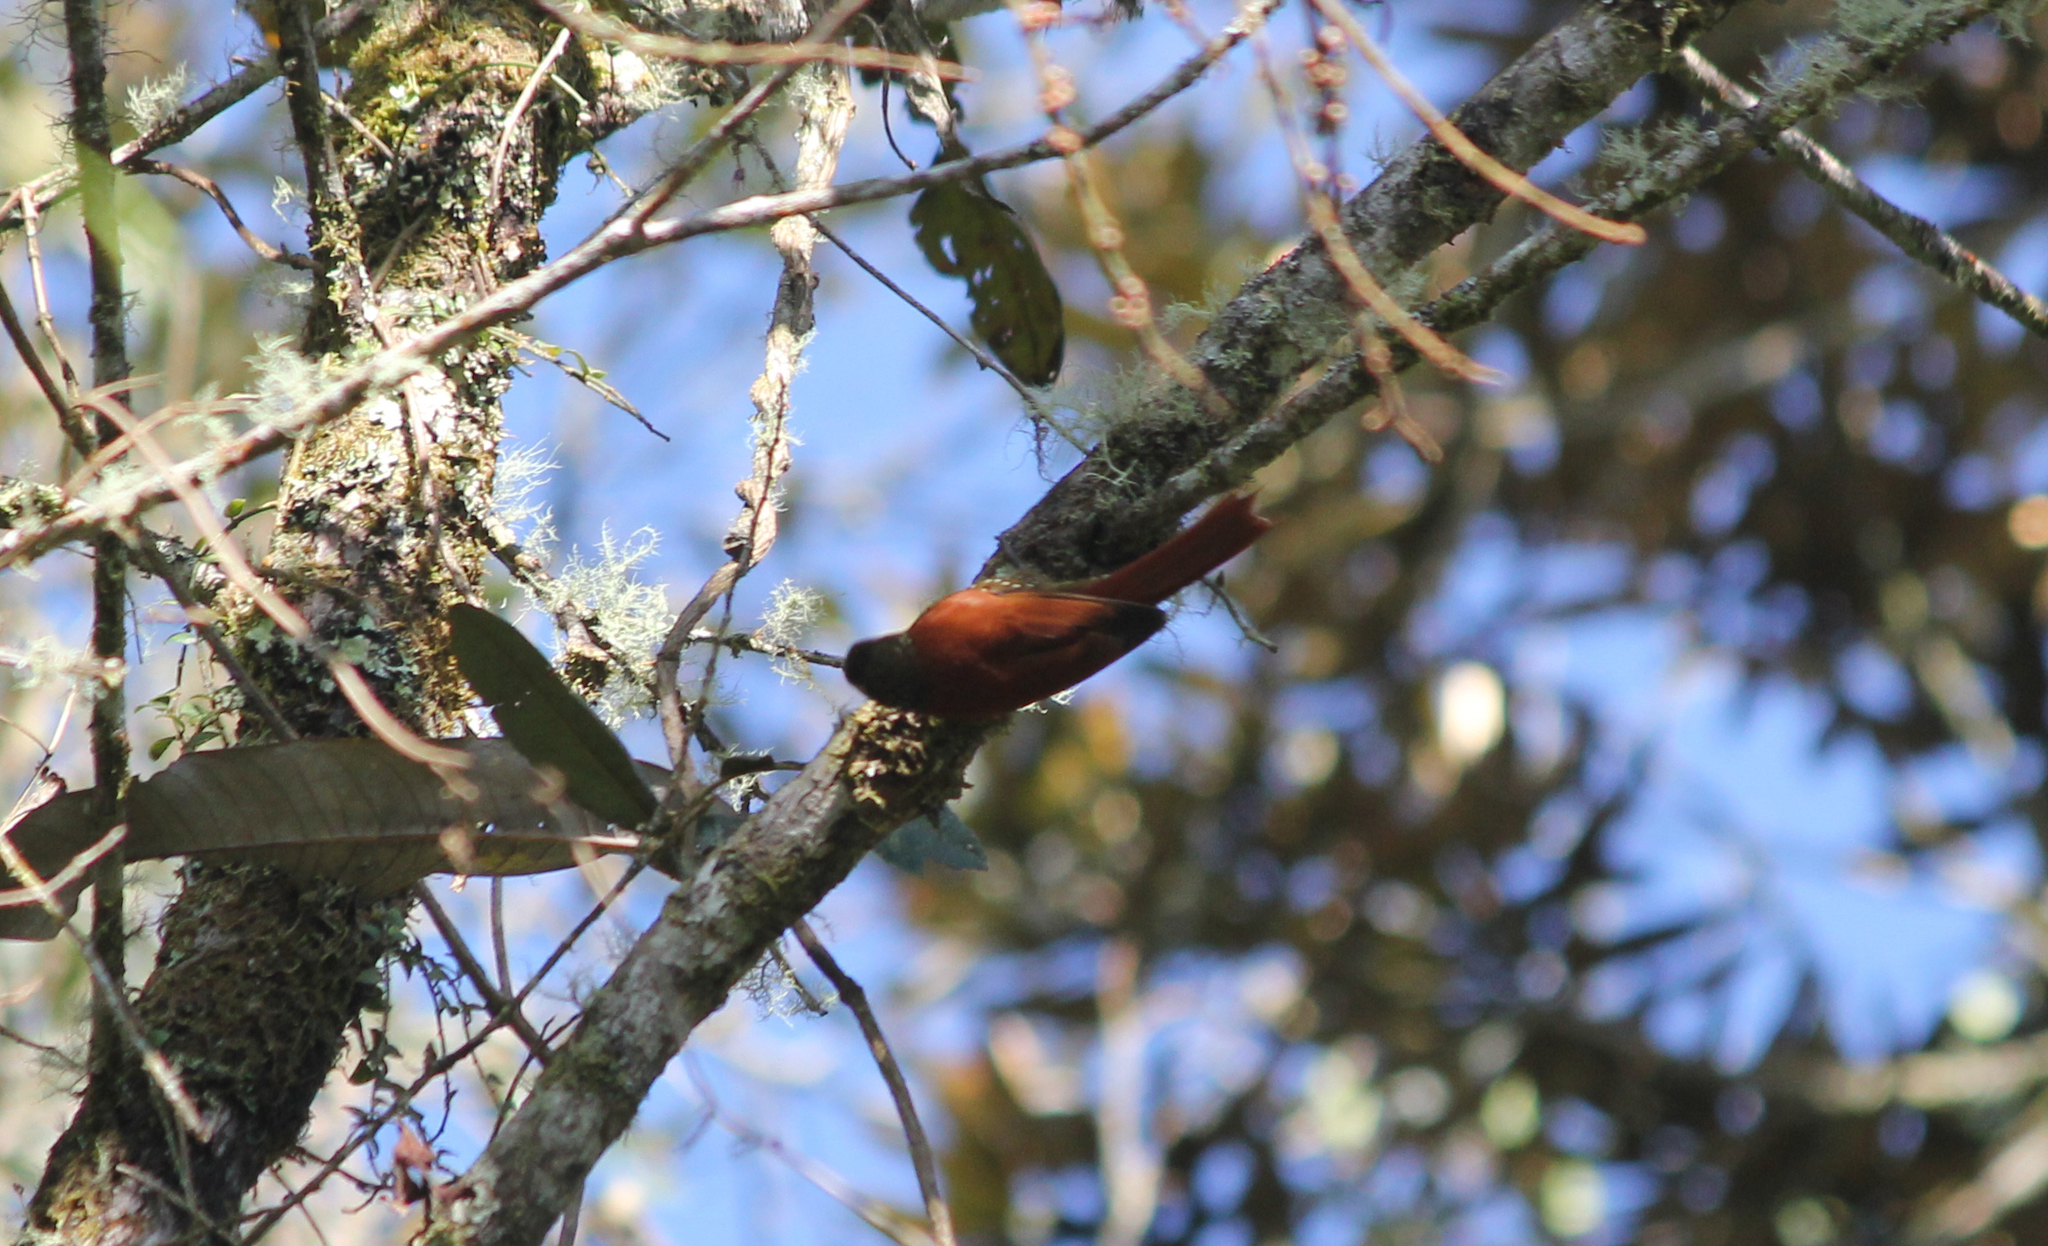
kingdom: Animalia
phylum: Chordata
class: Aves
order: Passeriformes
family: Furnariidae
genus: Lepidocolaptes
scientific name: Lepidocolaptes lacrymiger
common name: Montane woodcreeper
